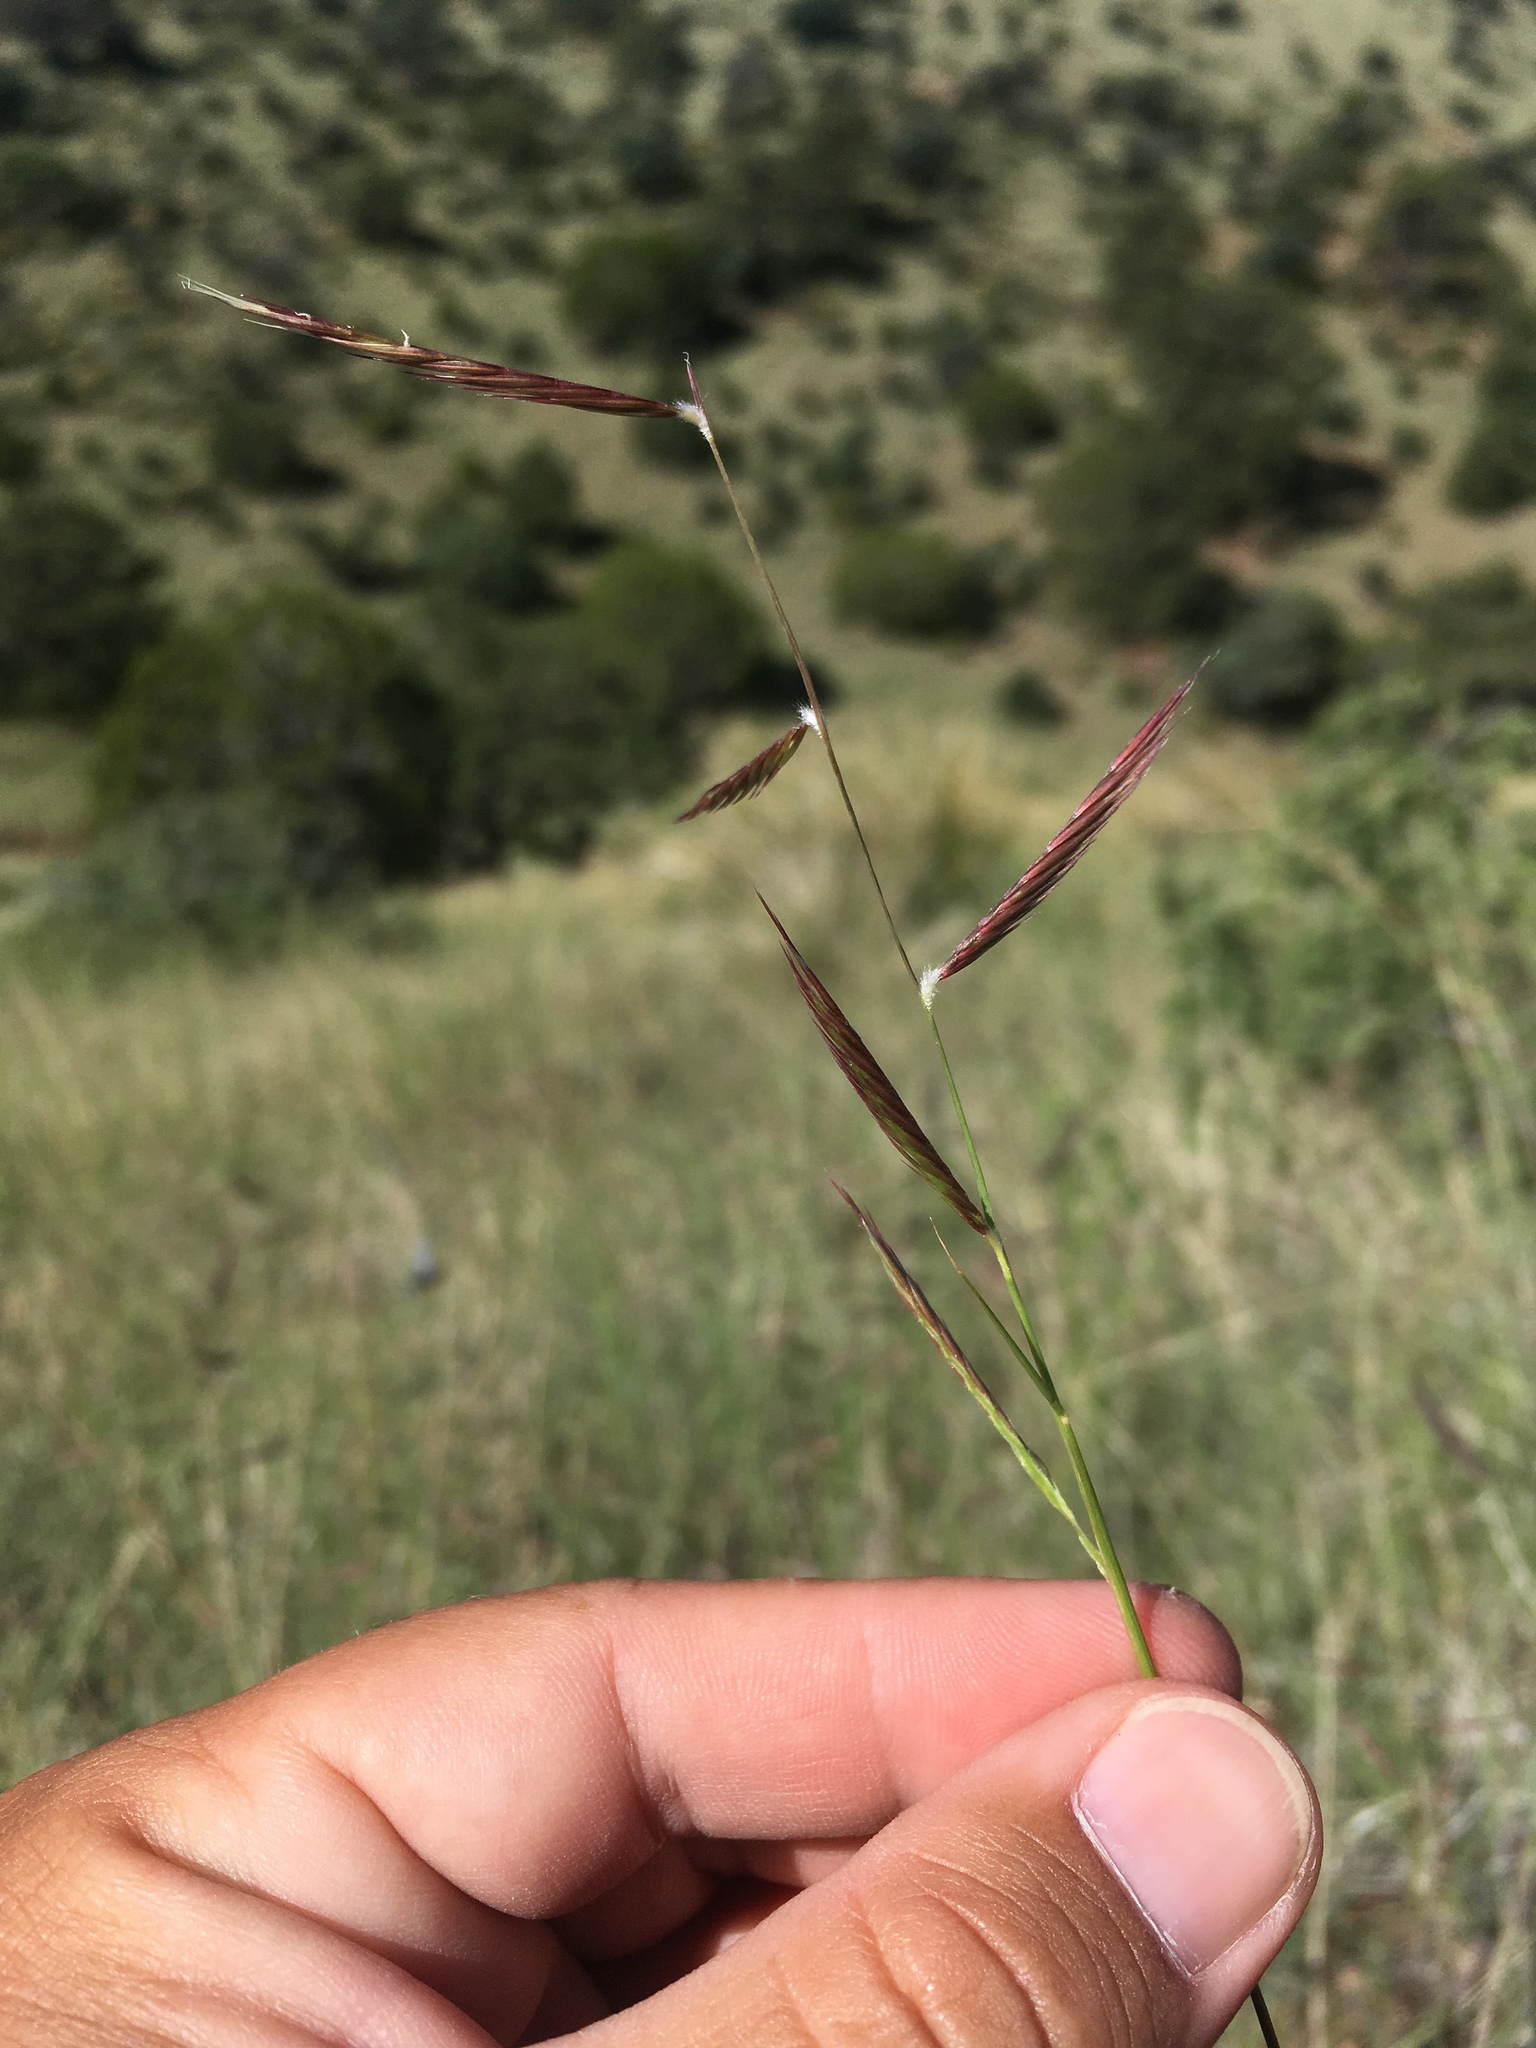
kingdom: Plantae
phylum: Tracheophyta
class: Liliopsida
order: Poales
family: Poaceae
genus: Bouteloua
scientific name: Bouteloua eriopoda
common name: Woolly foot grama
